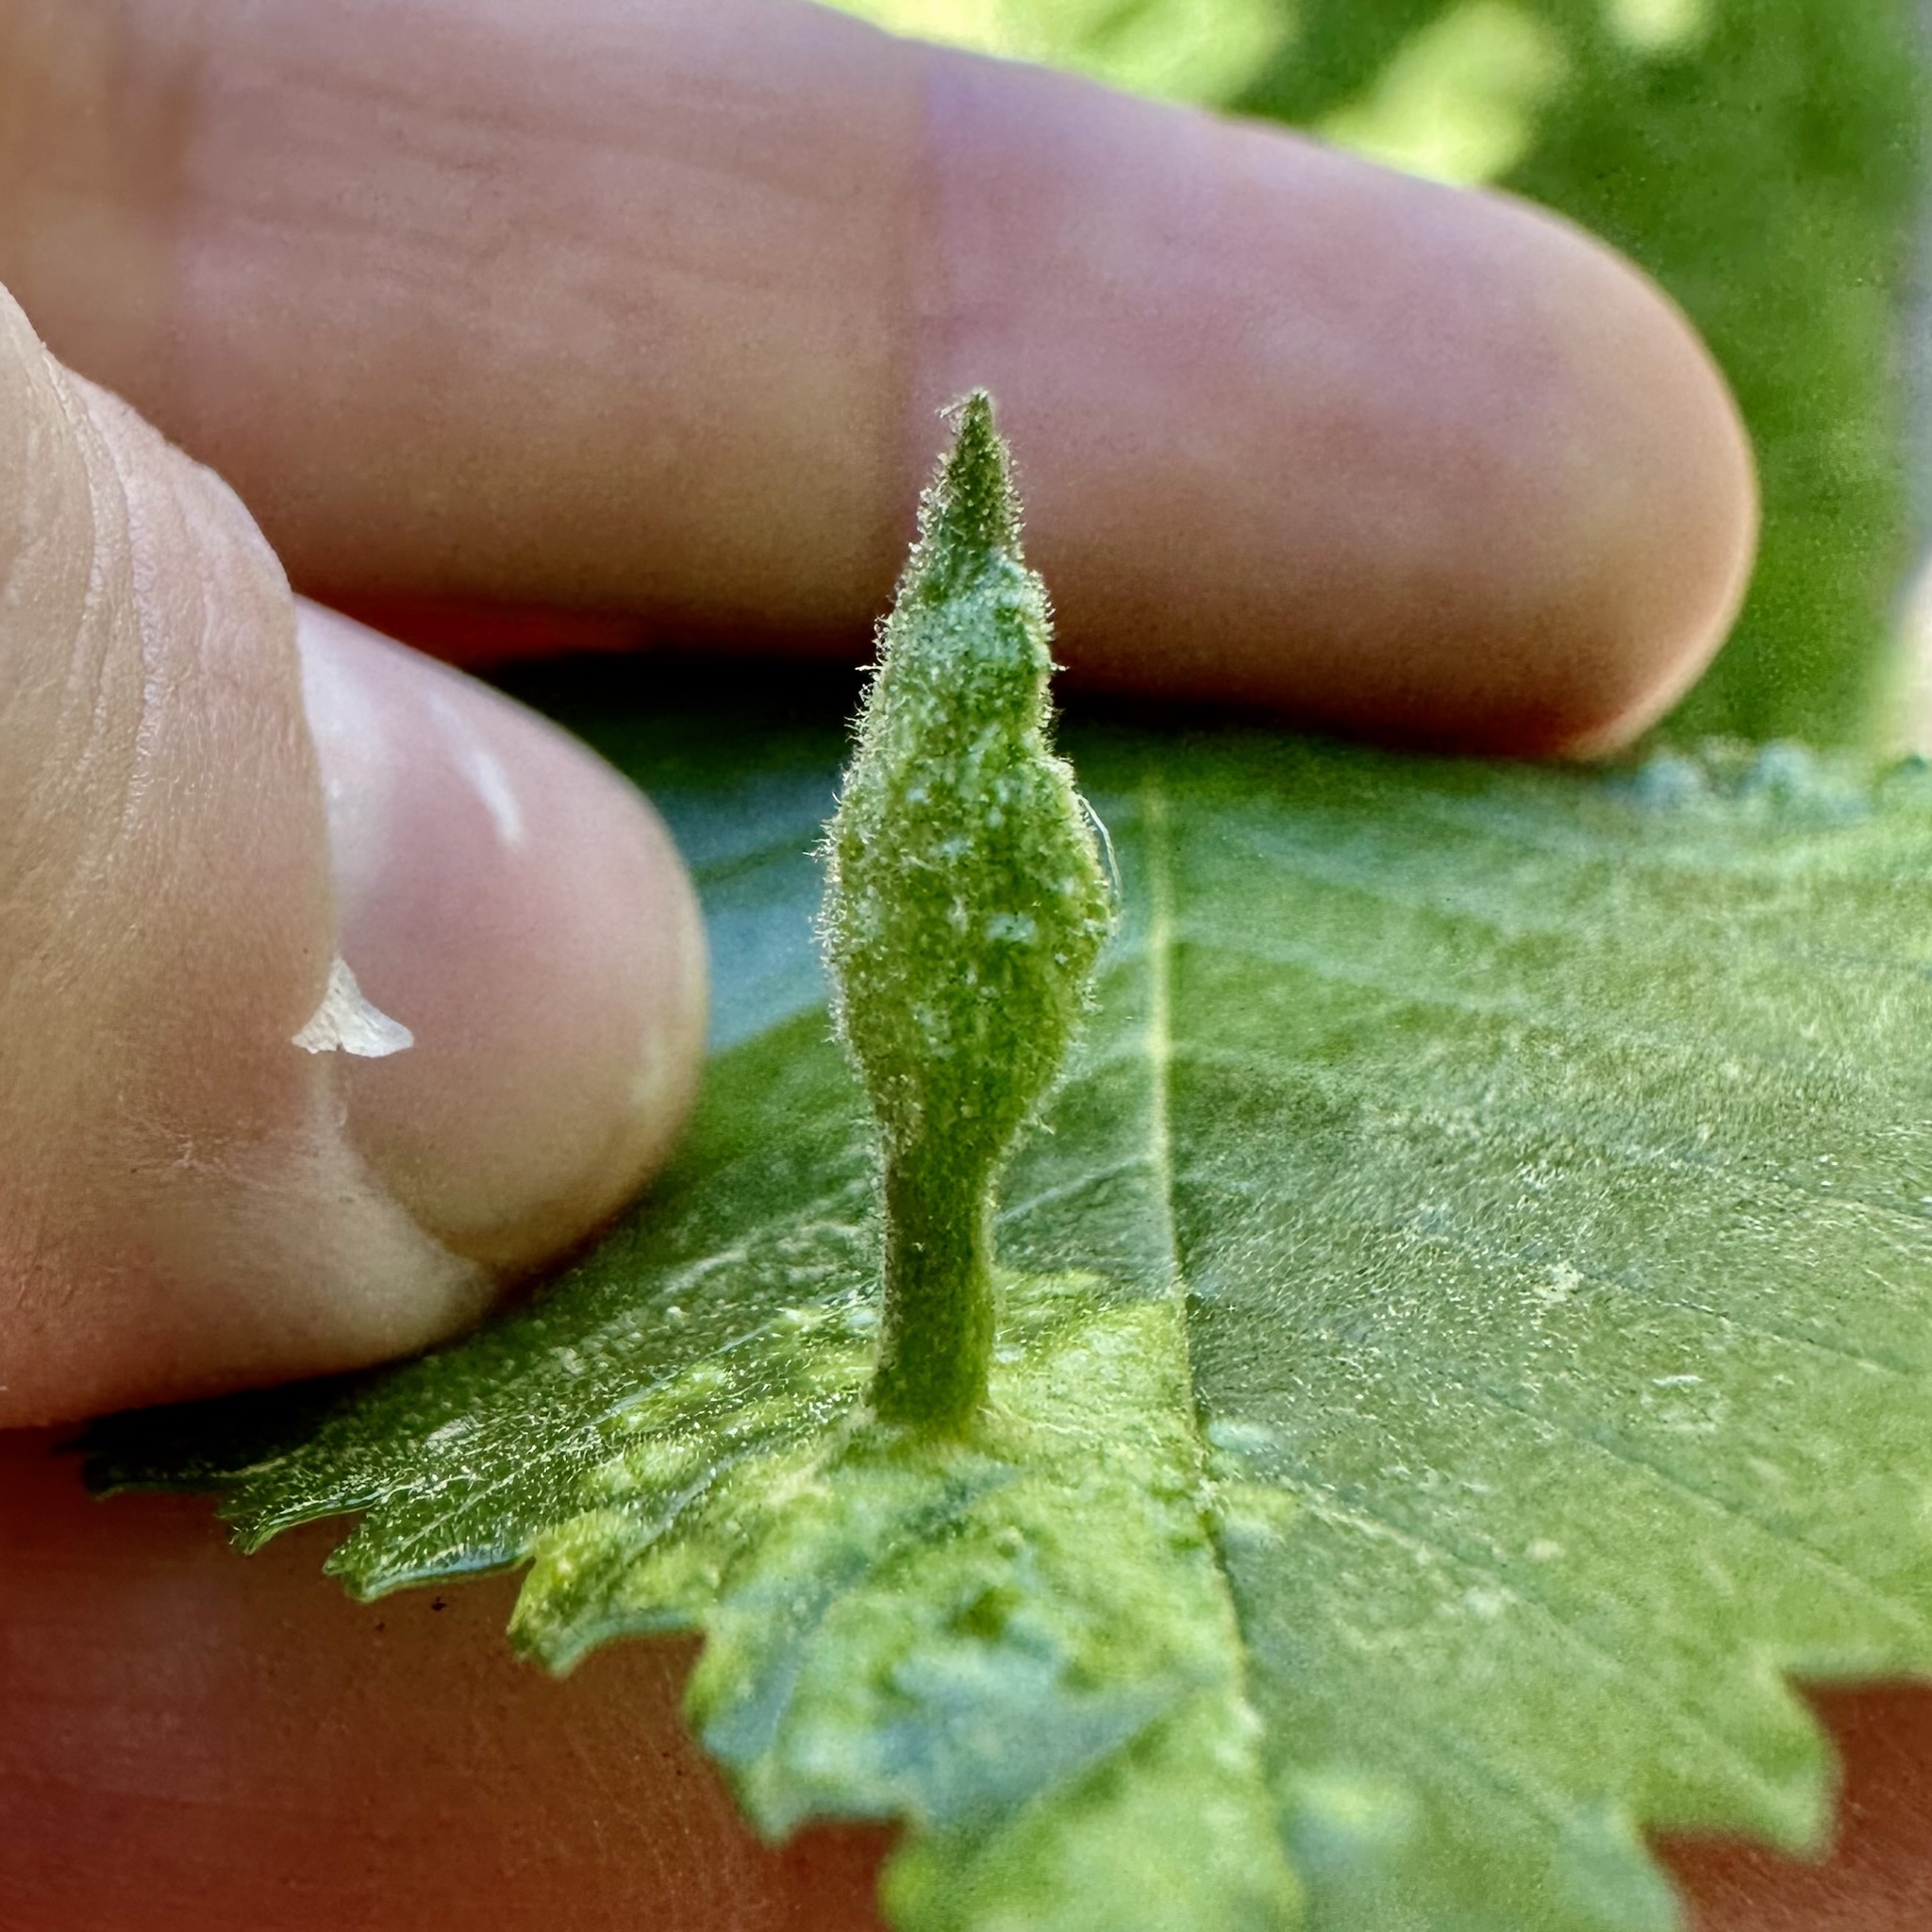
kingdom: Animalia
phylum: Arthropoda
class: Insecta
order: Hemiptera
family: Aphididae
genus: Tetraneura
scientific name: Tetraneura nigriabdominalis
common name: Aphid
